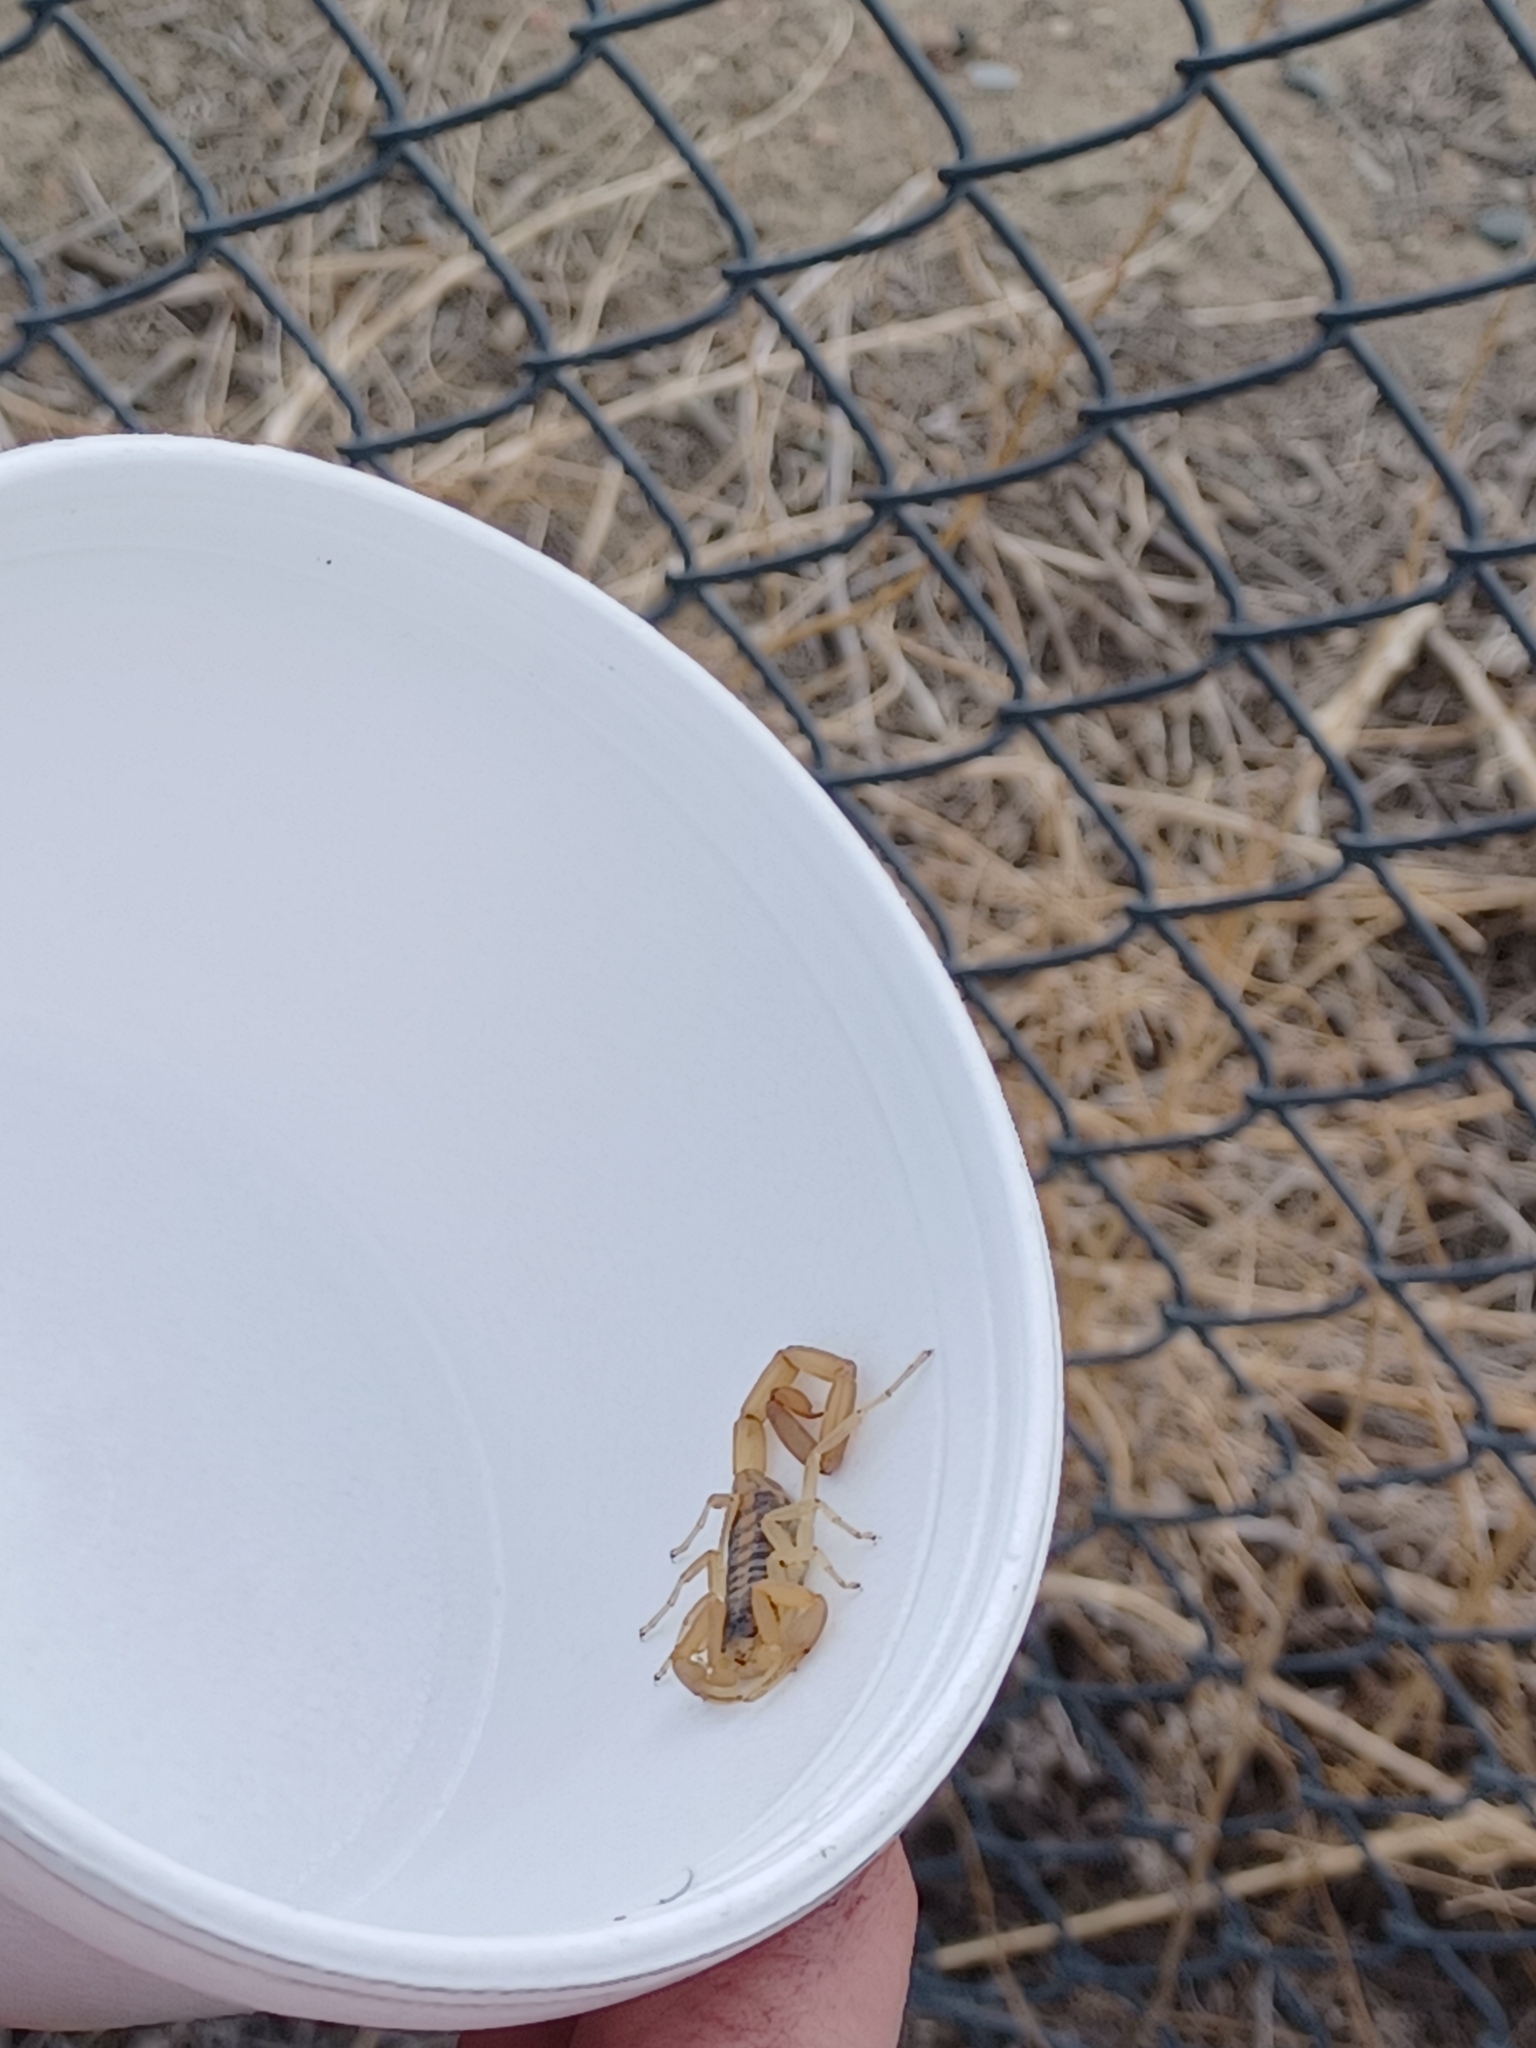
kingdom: Animalia
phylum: Arthropoda
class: Arachnida
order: Scorpiones
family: Buthidae
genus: Centruroides
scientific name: Centruroides vittatus
